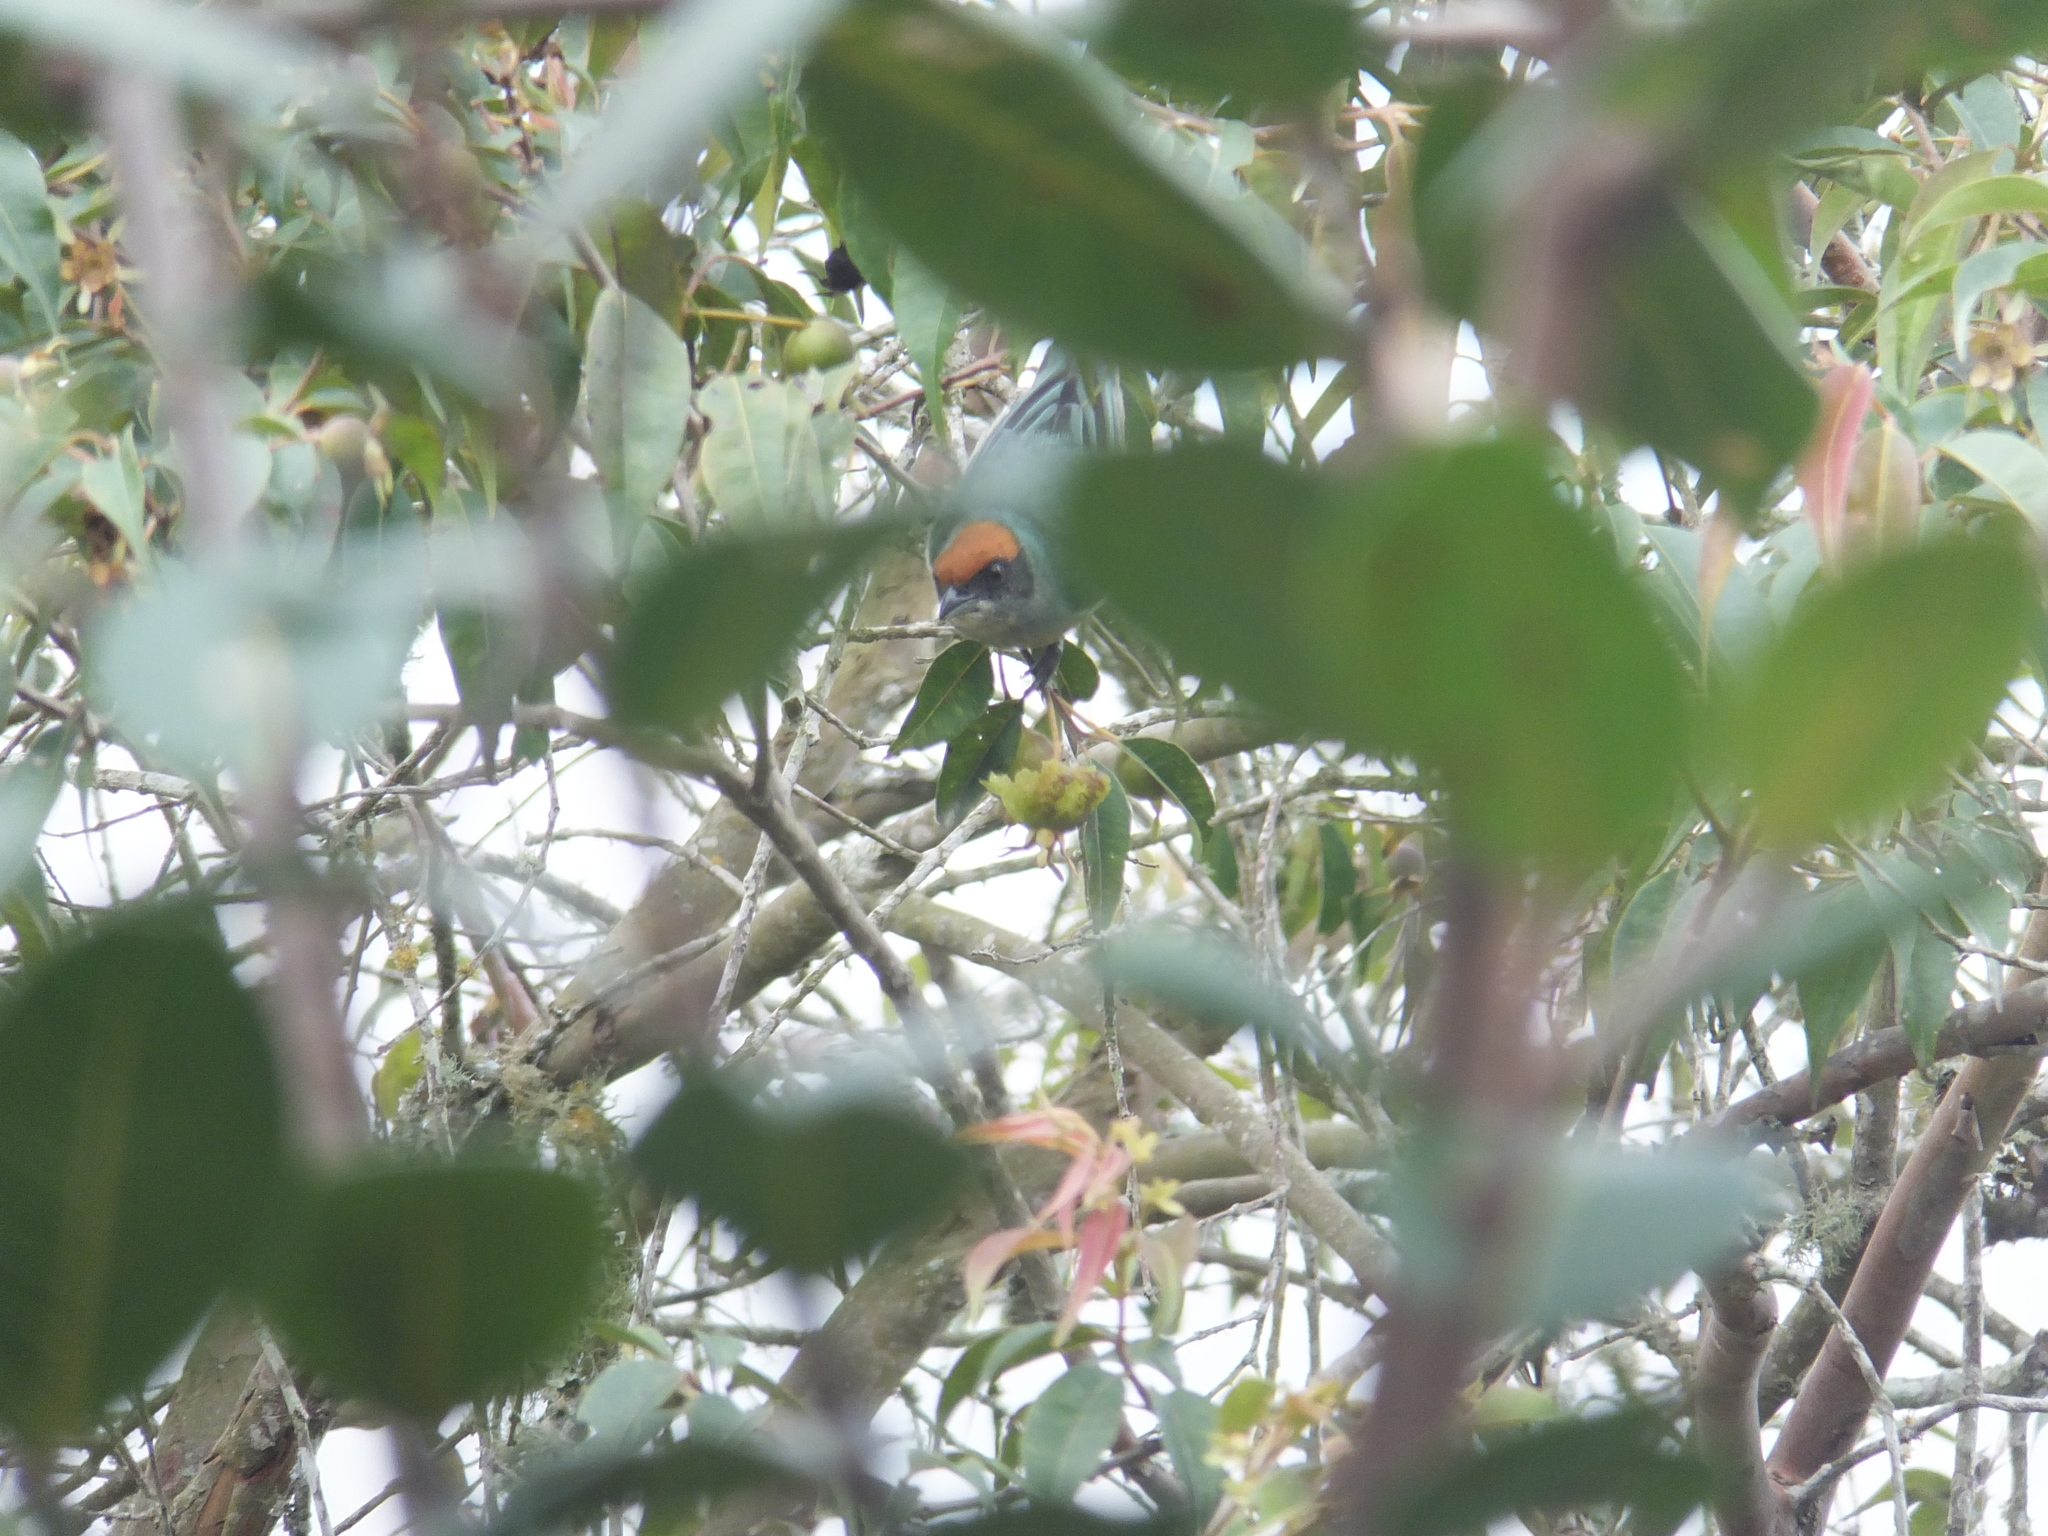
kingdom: Animalia
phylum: Chordata
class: Aves
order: Passeriformes
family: Thraupidae
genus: Stilpnia
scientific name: Stilpnia vitriolina
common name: Scrub tanager
